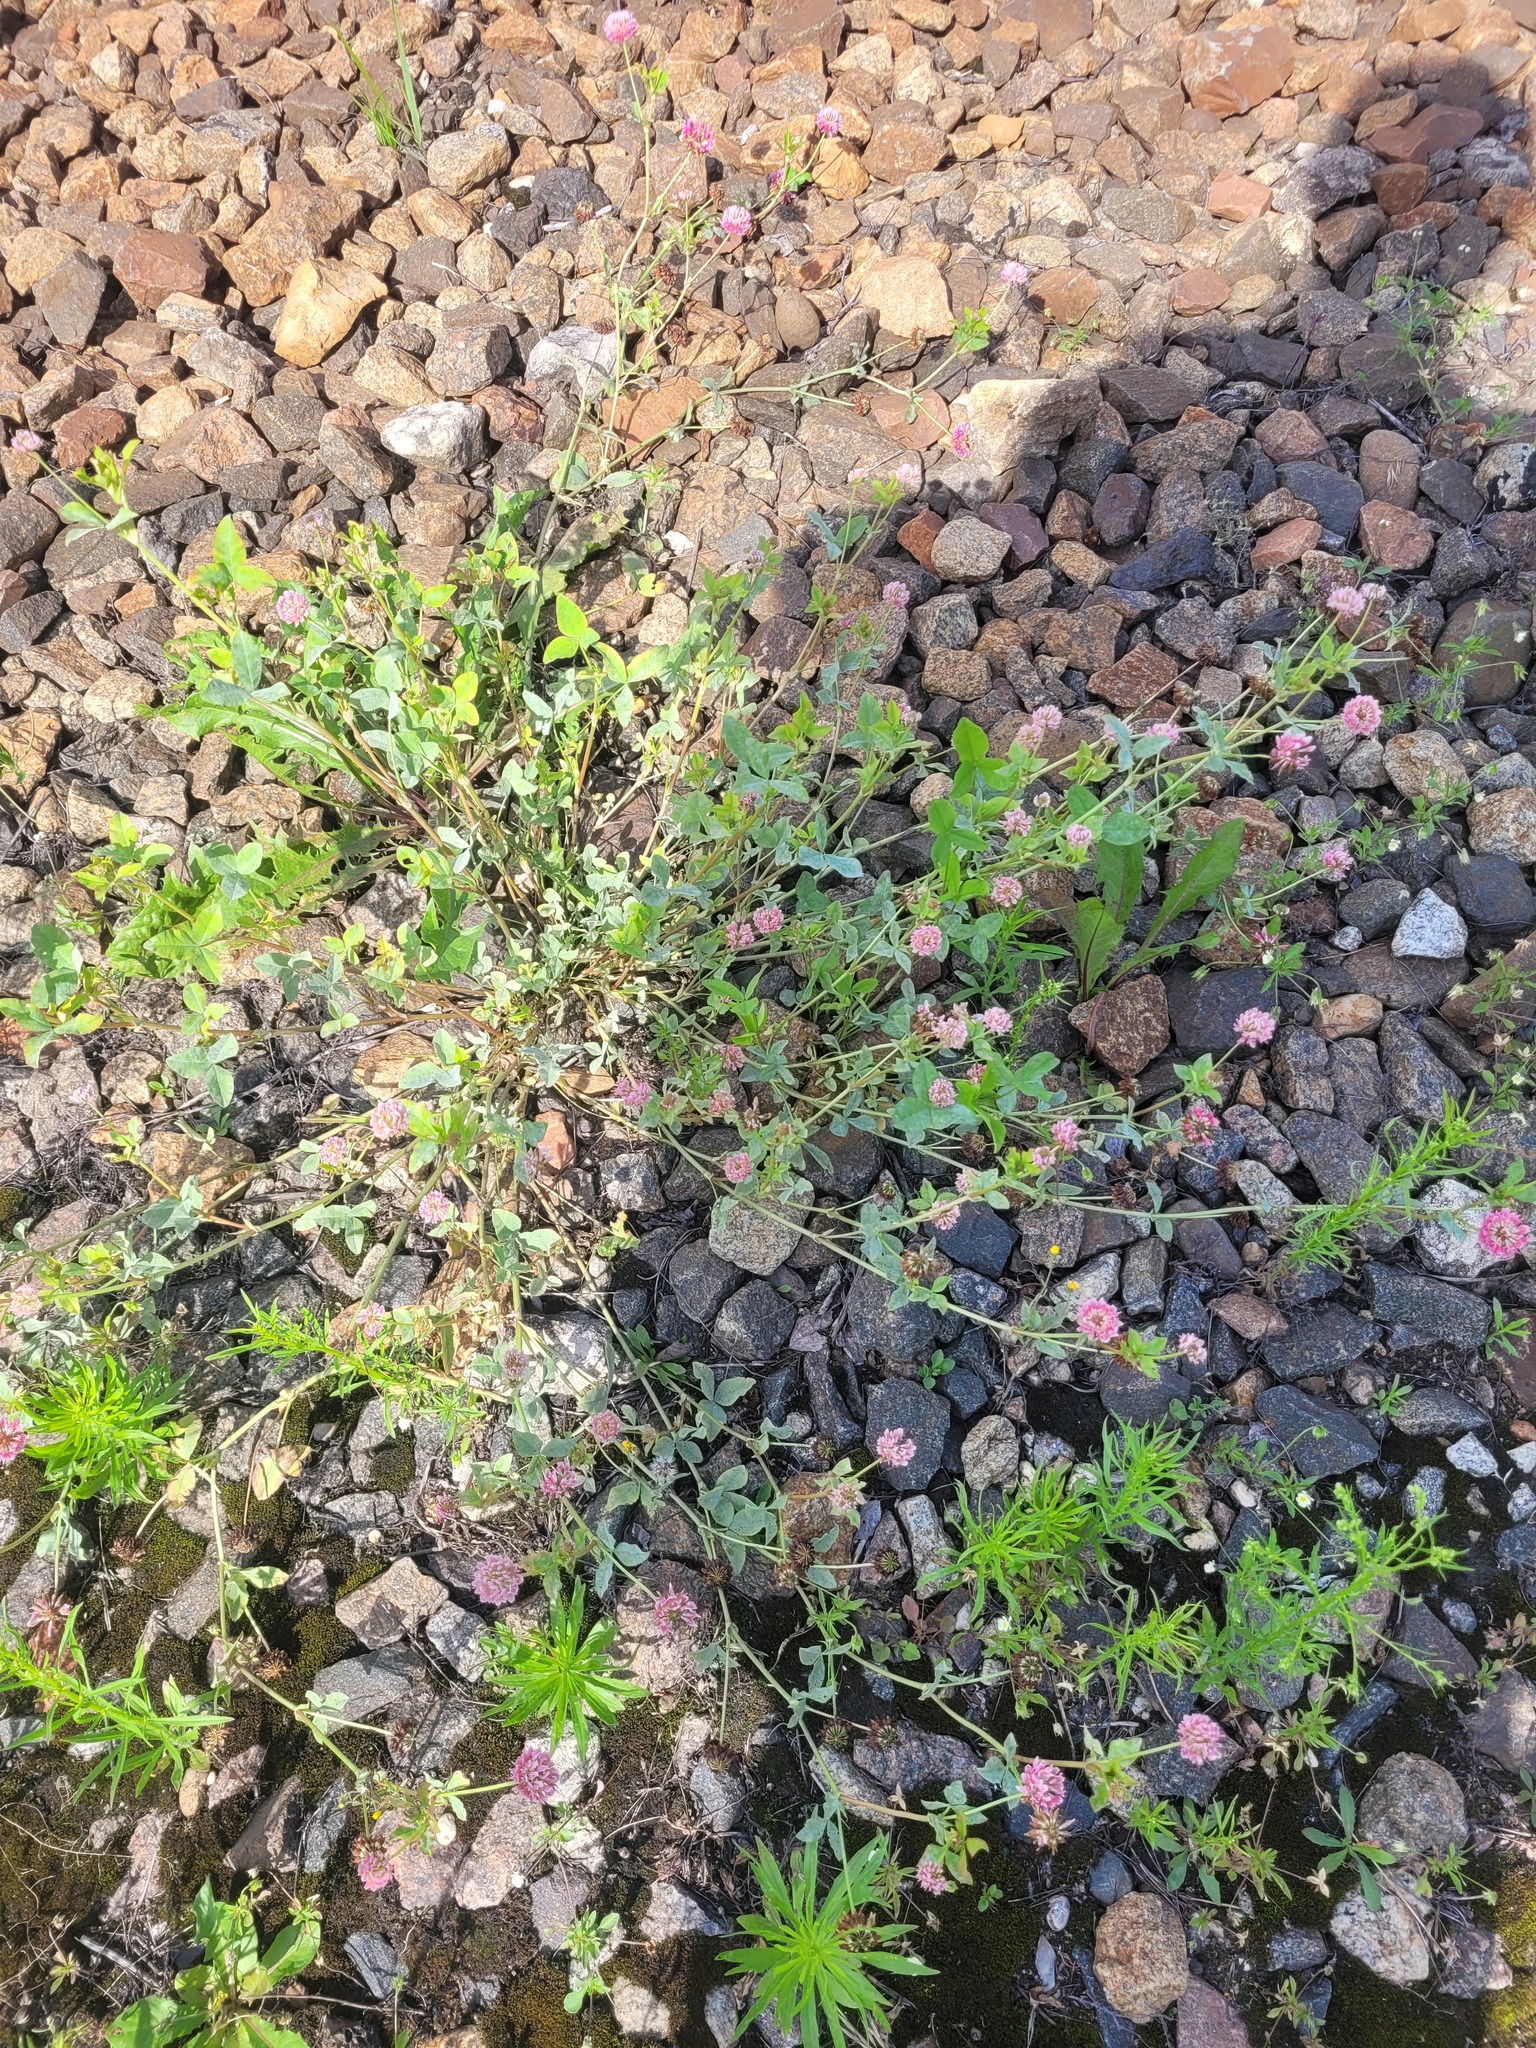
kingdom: Plantae
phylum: Tracheophyta
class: Magnoliopsida
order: Fabales
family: Fabaceae
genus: Trifolium
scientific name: Trifolium hybridum
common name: Alsike clover
